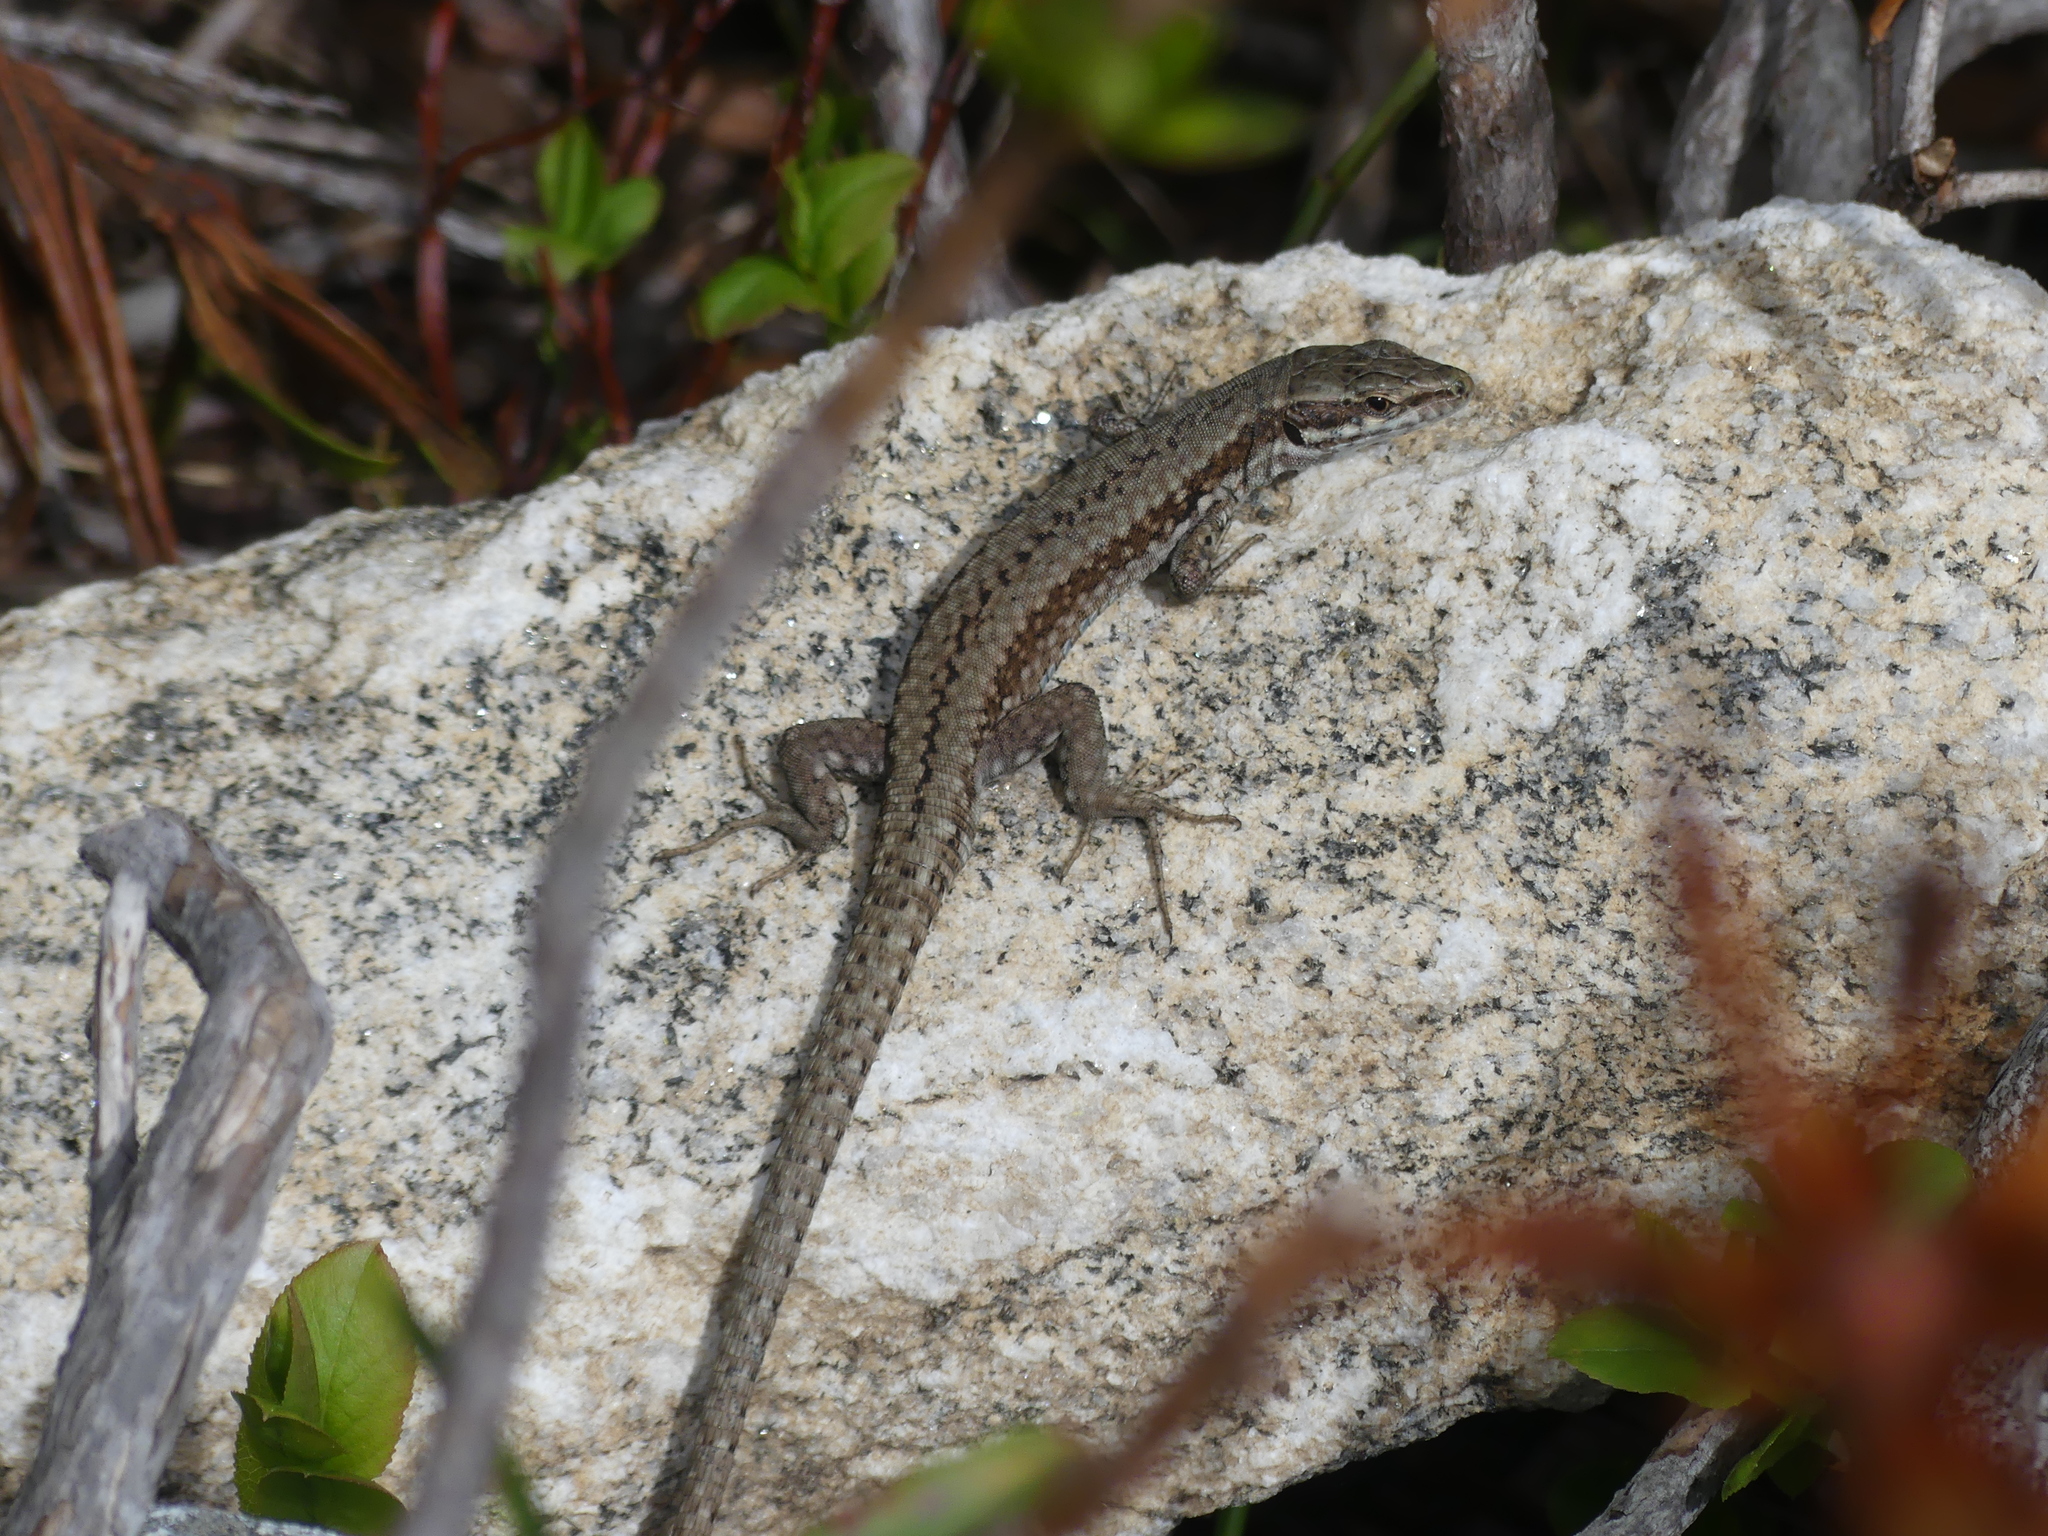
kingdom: Animalia
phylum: Chordata
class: Squamata
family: Lacertidae
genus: Podarcis
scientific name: Podarcis muralis
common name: Common wall lizard
